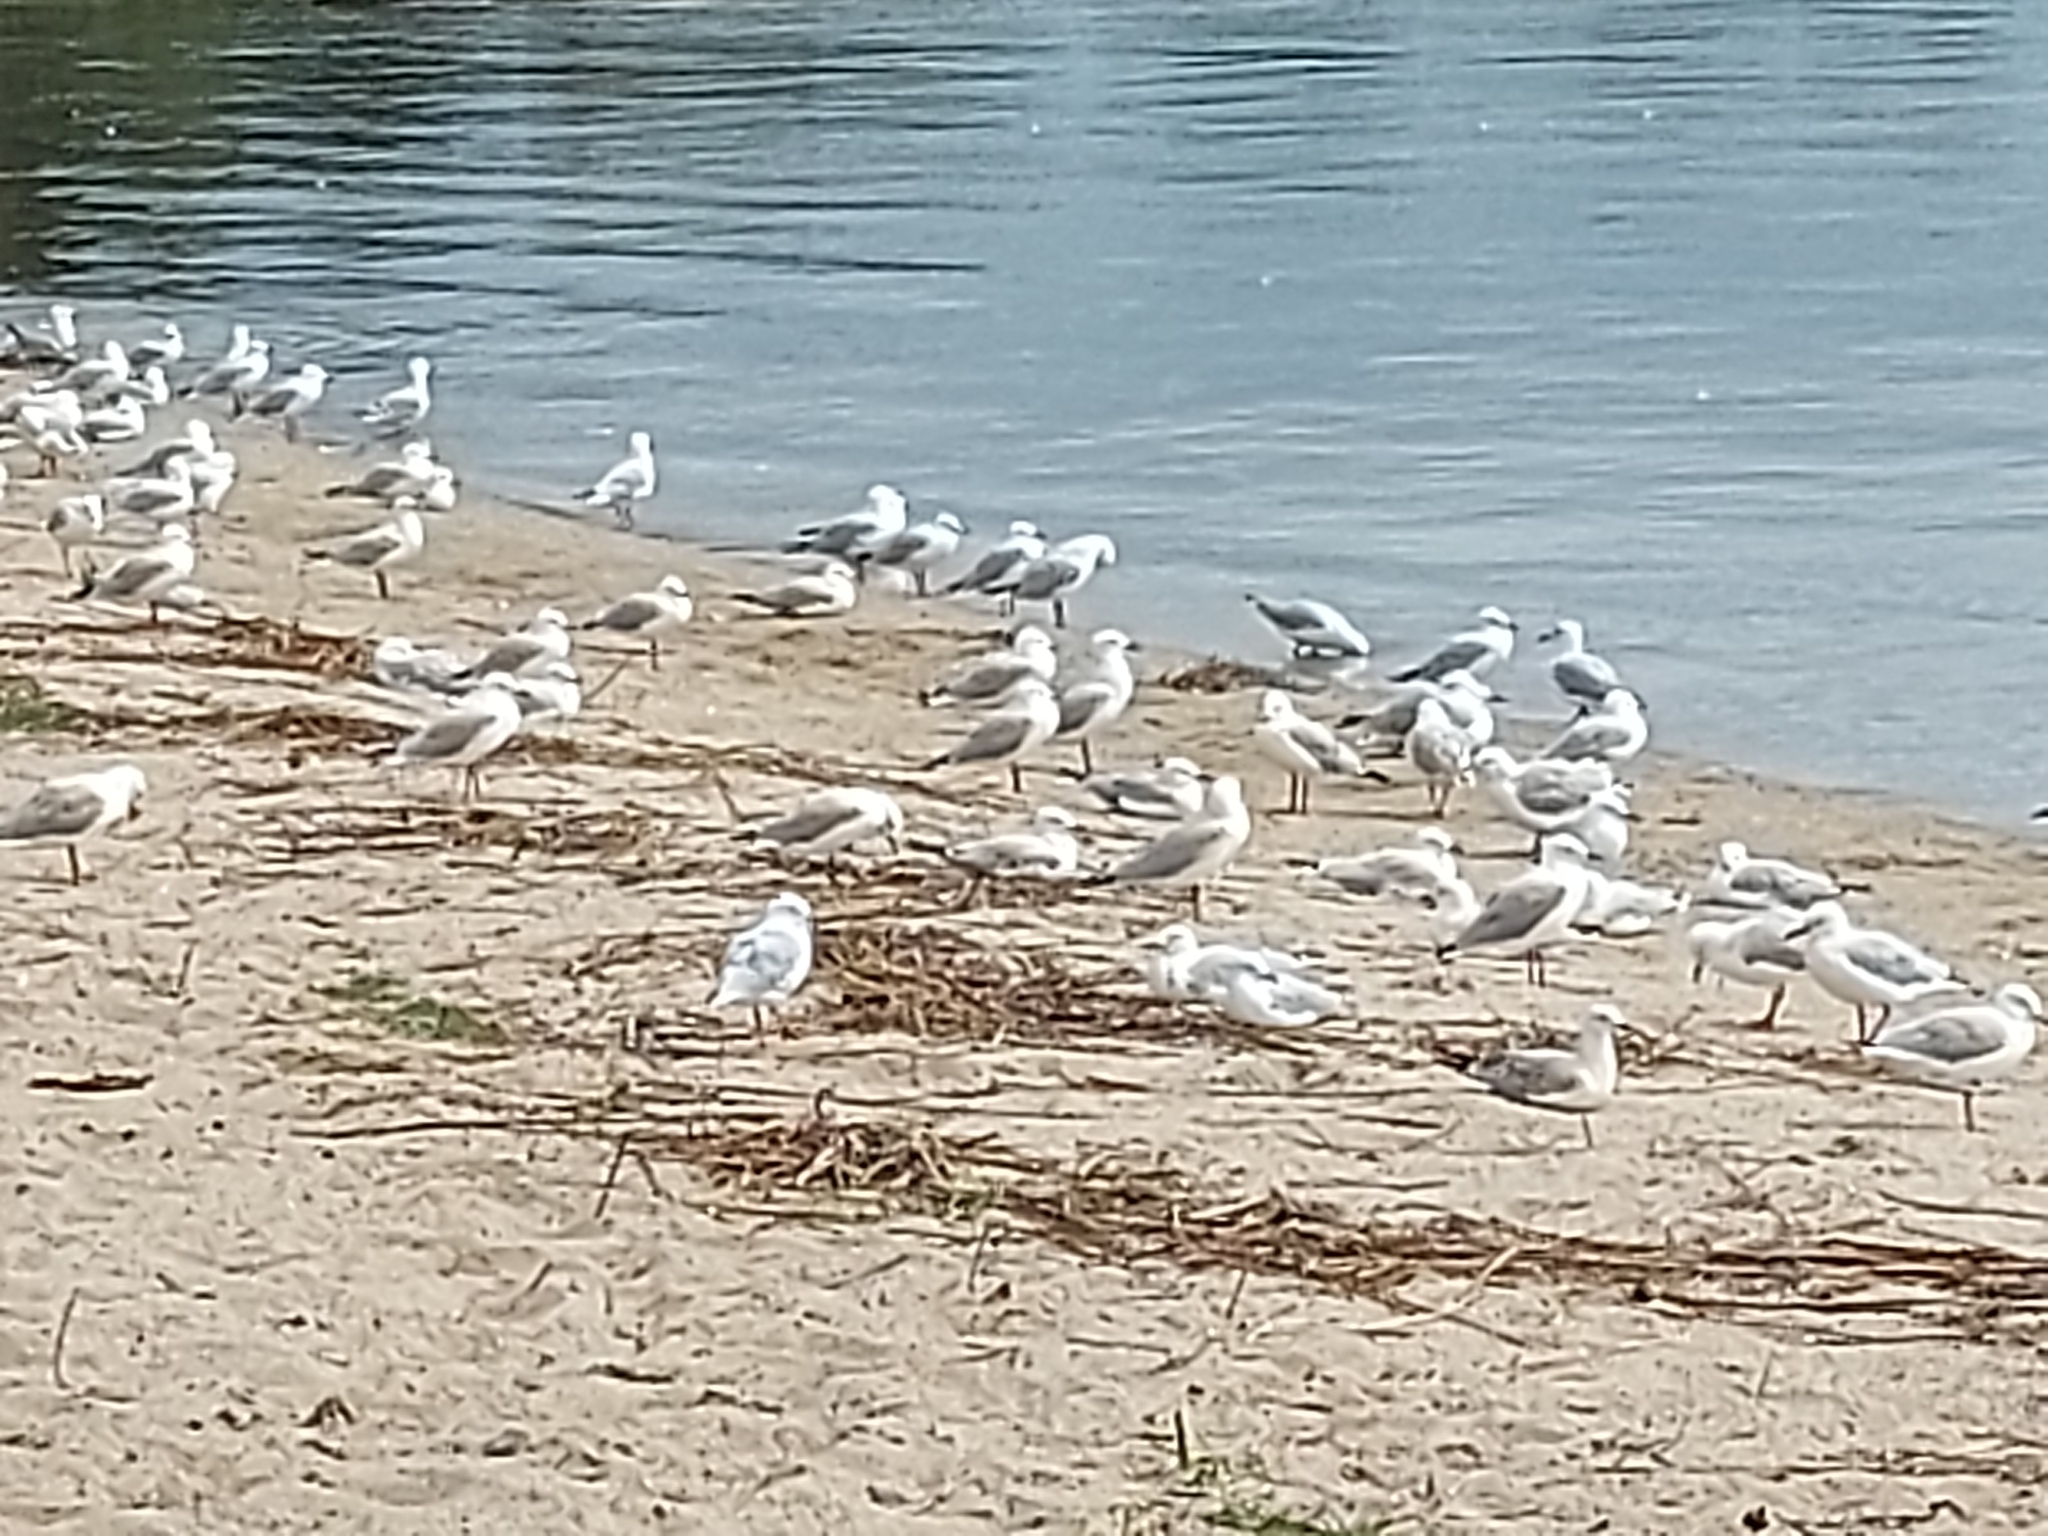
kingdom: Animalia
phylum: Chordata
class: Aves
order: Charadriiformes
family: Laridae
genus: Chroicocephalus
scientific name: Chroicocephalus novaehollandiae
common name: Silver gull
